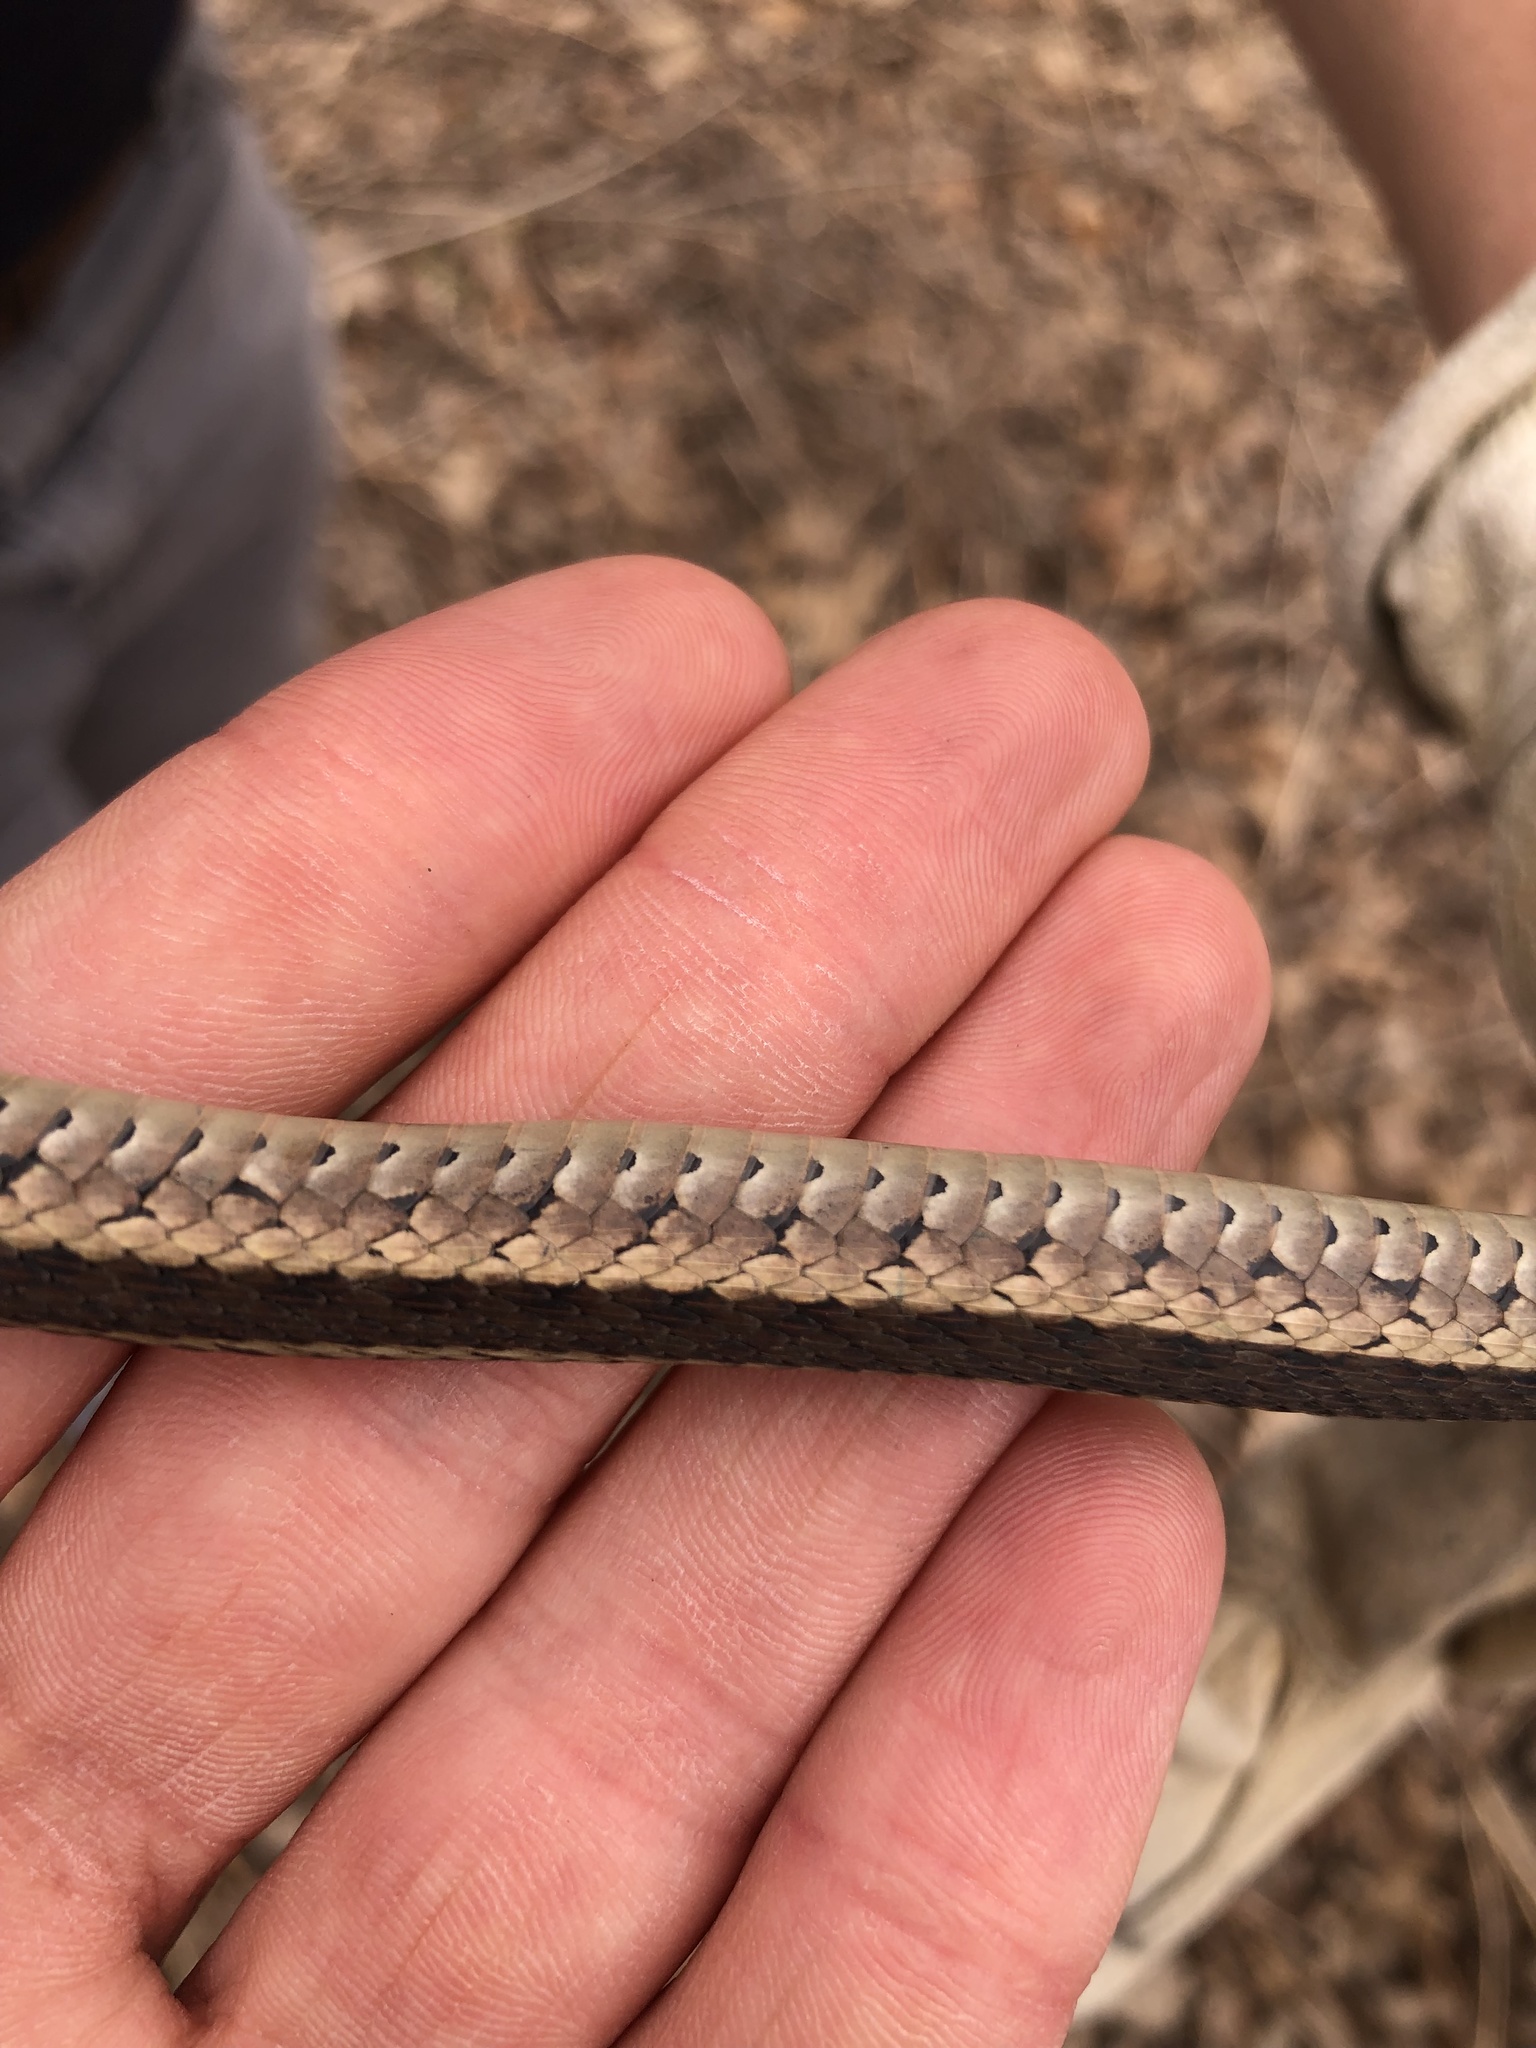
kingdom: Animalia
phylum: Chordata
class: Squamata
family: Colubridae
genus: Thamnophis
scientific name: Thamnophis sirtalis
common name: Common garter snake
